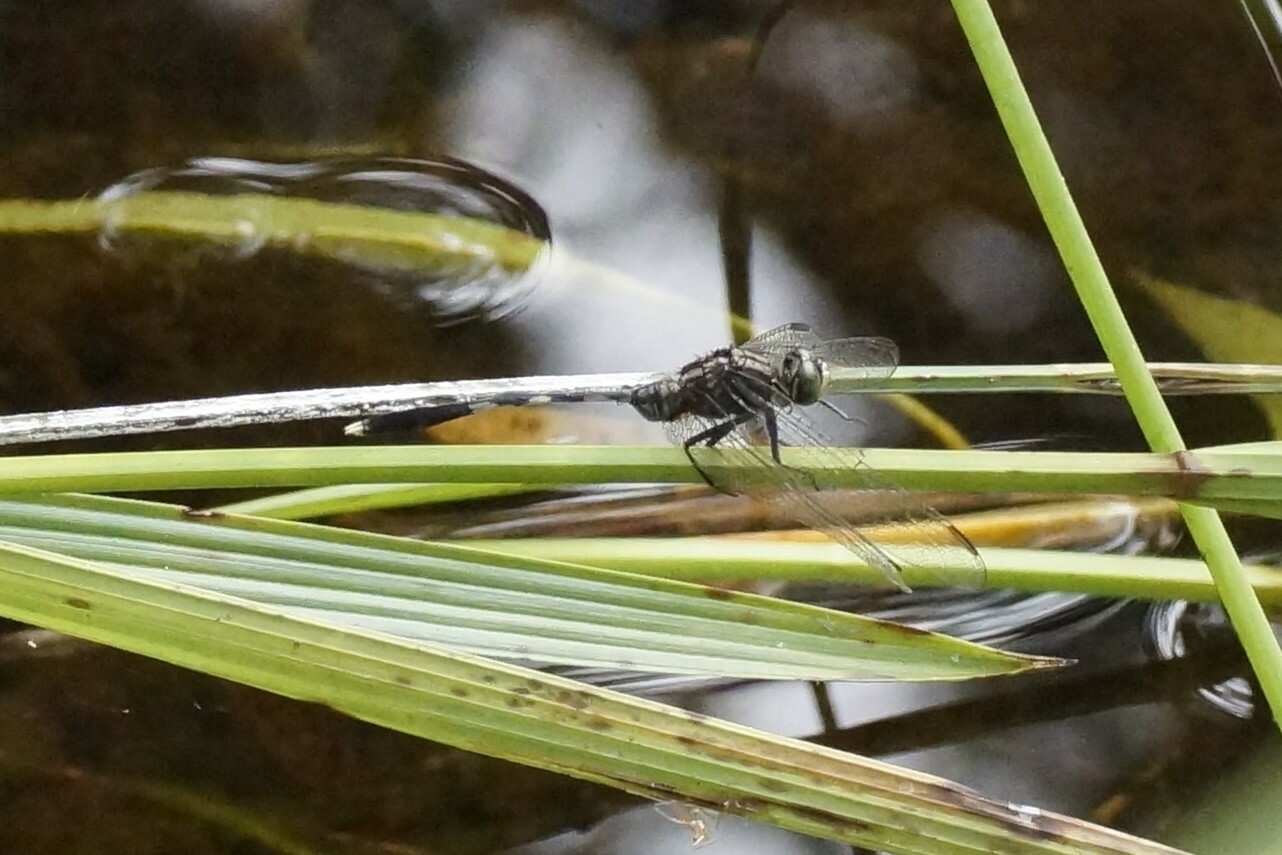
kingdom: Animalia
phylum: Arthropoda
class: Insecta
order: Odonata
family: Libellulidae
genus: Orthetrum
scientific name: Orthetrum sabina
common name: Slender skimmer
